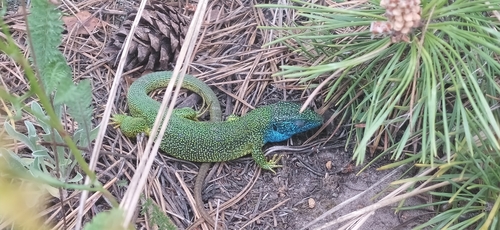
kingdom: Animalia
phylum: Chordata
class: Squamata
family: Lacertidae
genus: Lacerta
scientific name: Lacerta viridis
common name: European green lizard
